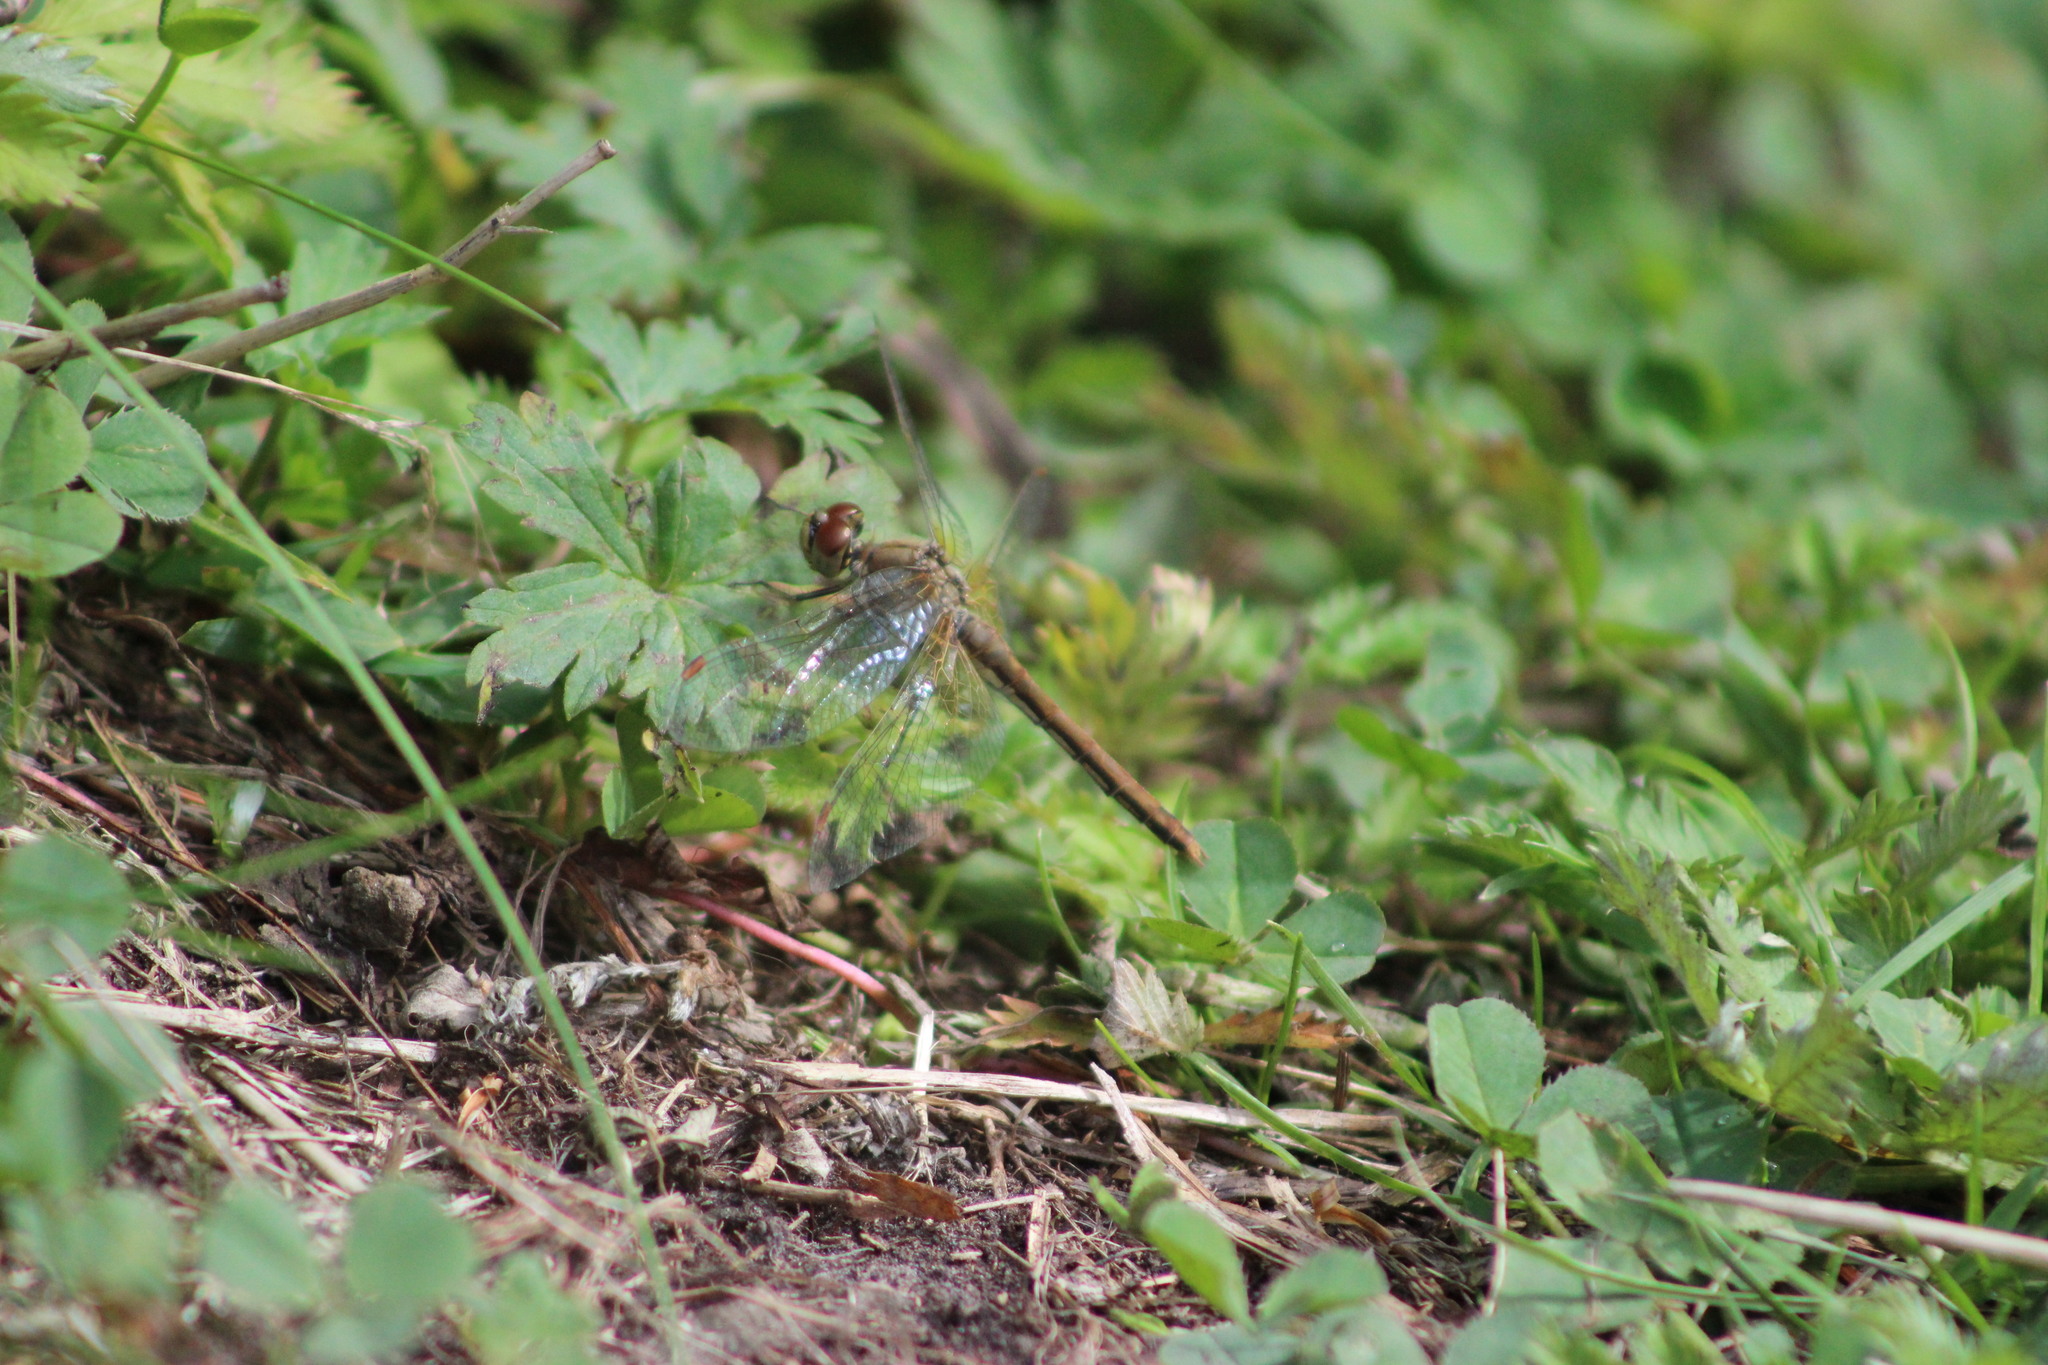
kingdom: Animalia
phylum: Arthropoda
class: Insecta
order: Odonata
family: Libellulidae
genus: Sympetrum
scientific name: Sympetrum flaveolum
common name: Yellow-winged darter
